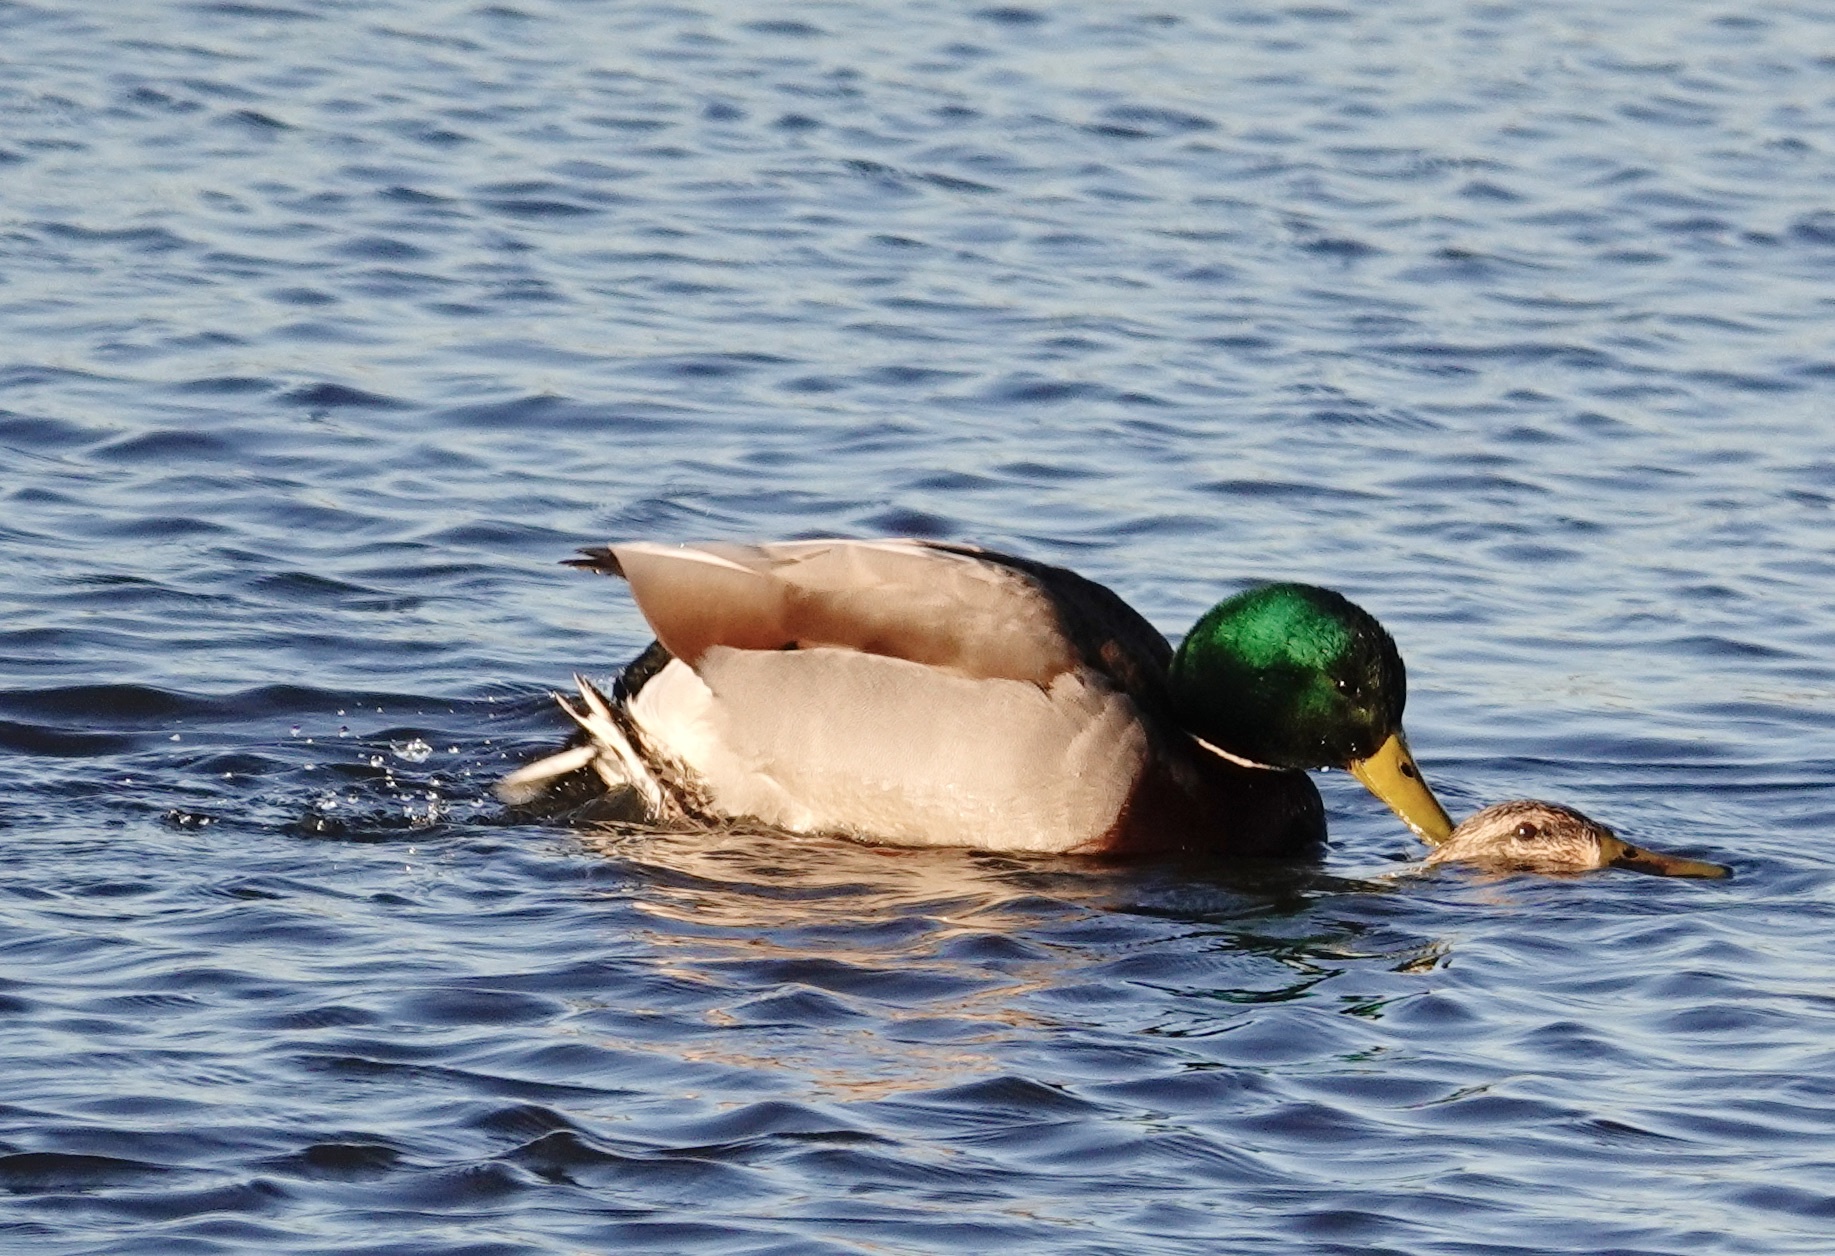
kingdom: Animalia
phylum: Chordata
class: Aves
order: Anseriformes
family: Anatidae
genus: Anas
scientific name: Anas platyrhynchos
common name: Mallard
